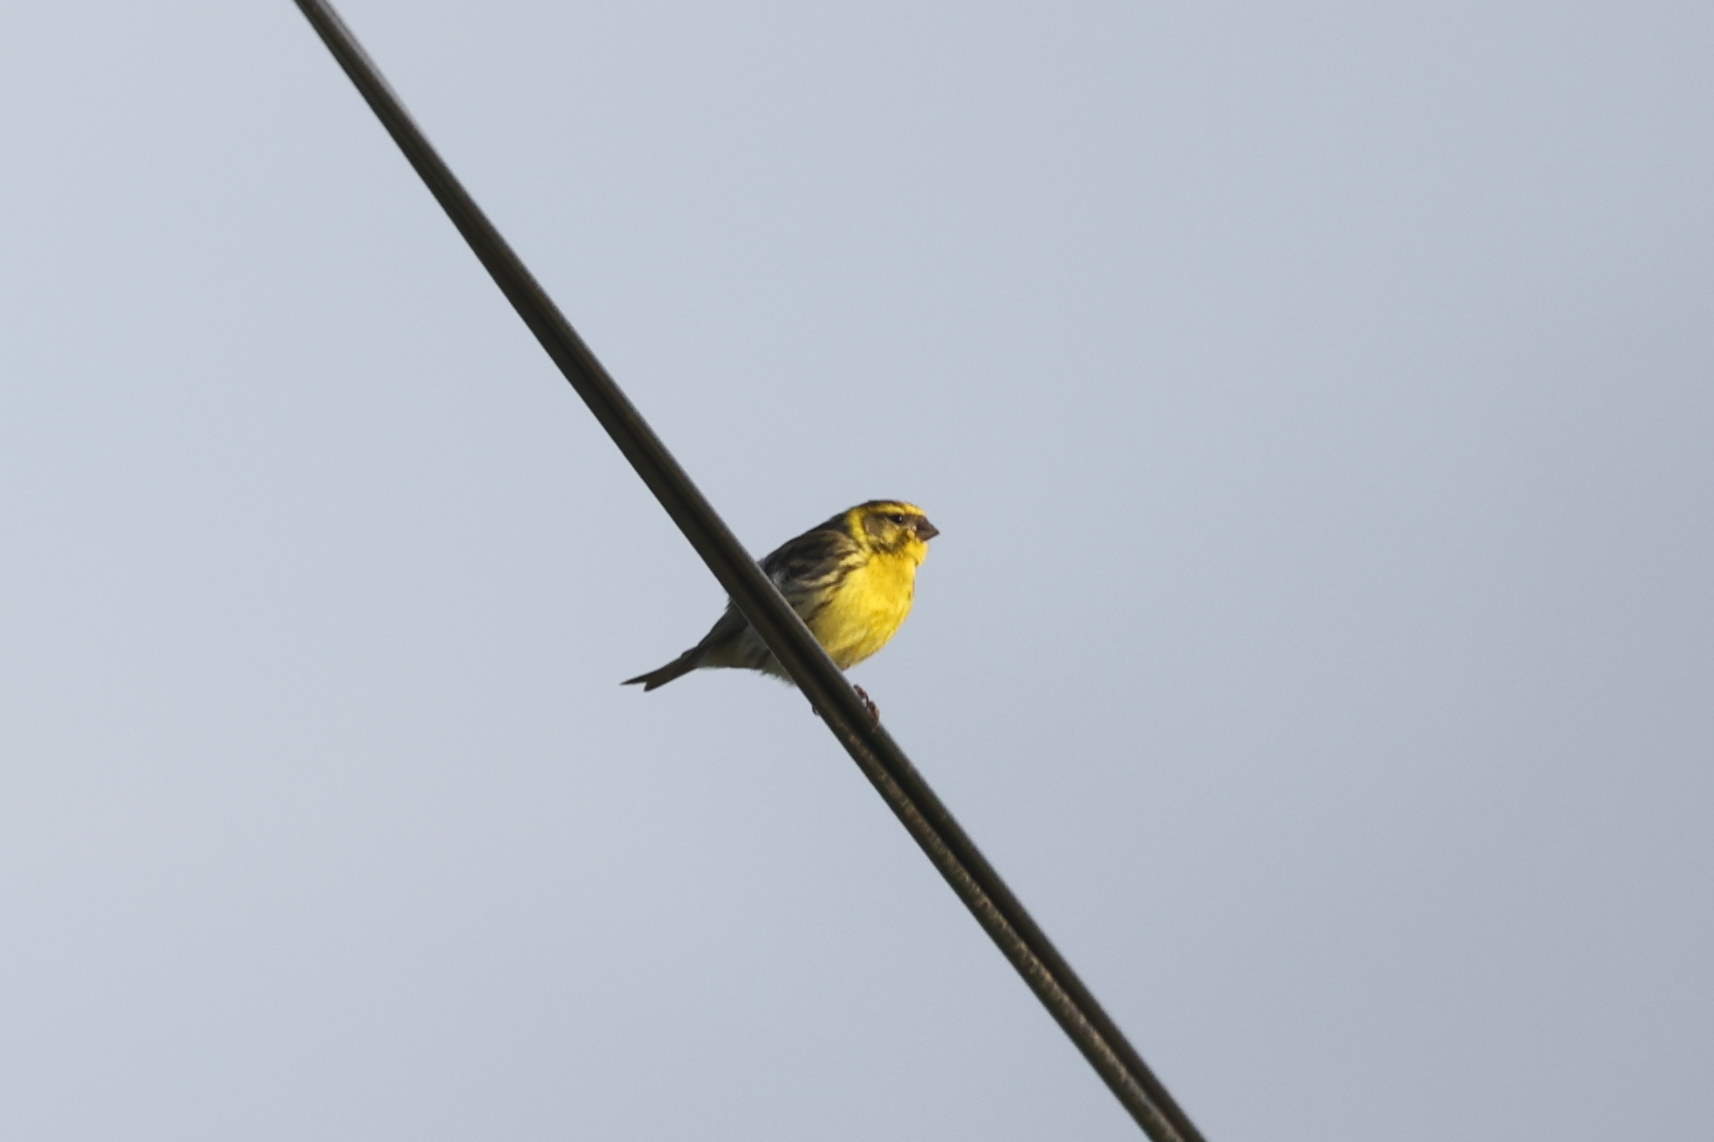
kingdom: Animalia
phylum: Chordata
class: Aves
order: Passeriformes
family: Fringillidae
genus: Serinus
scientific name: Serinus serinus
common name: European serin
